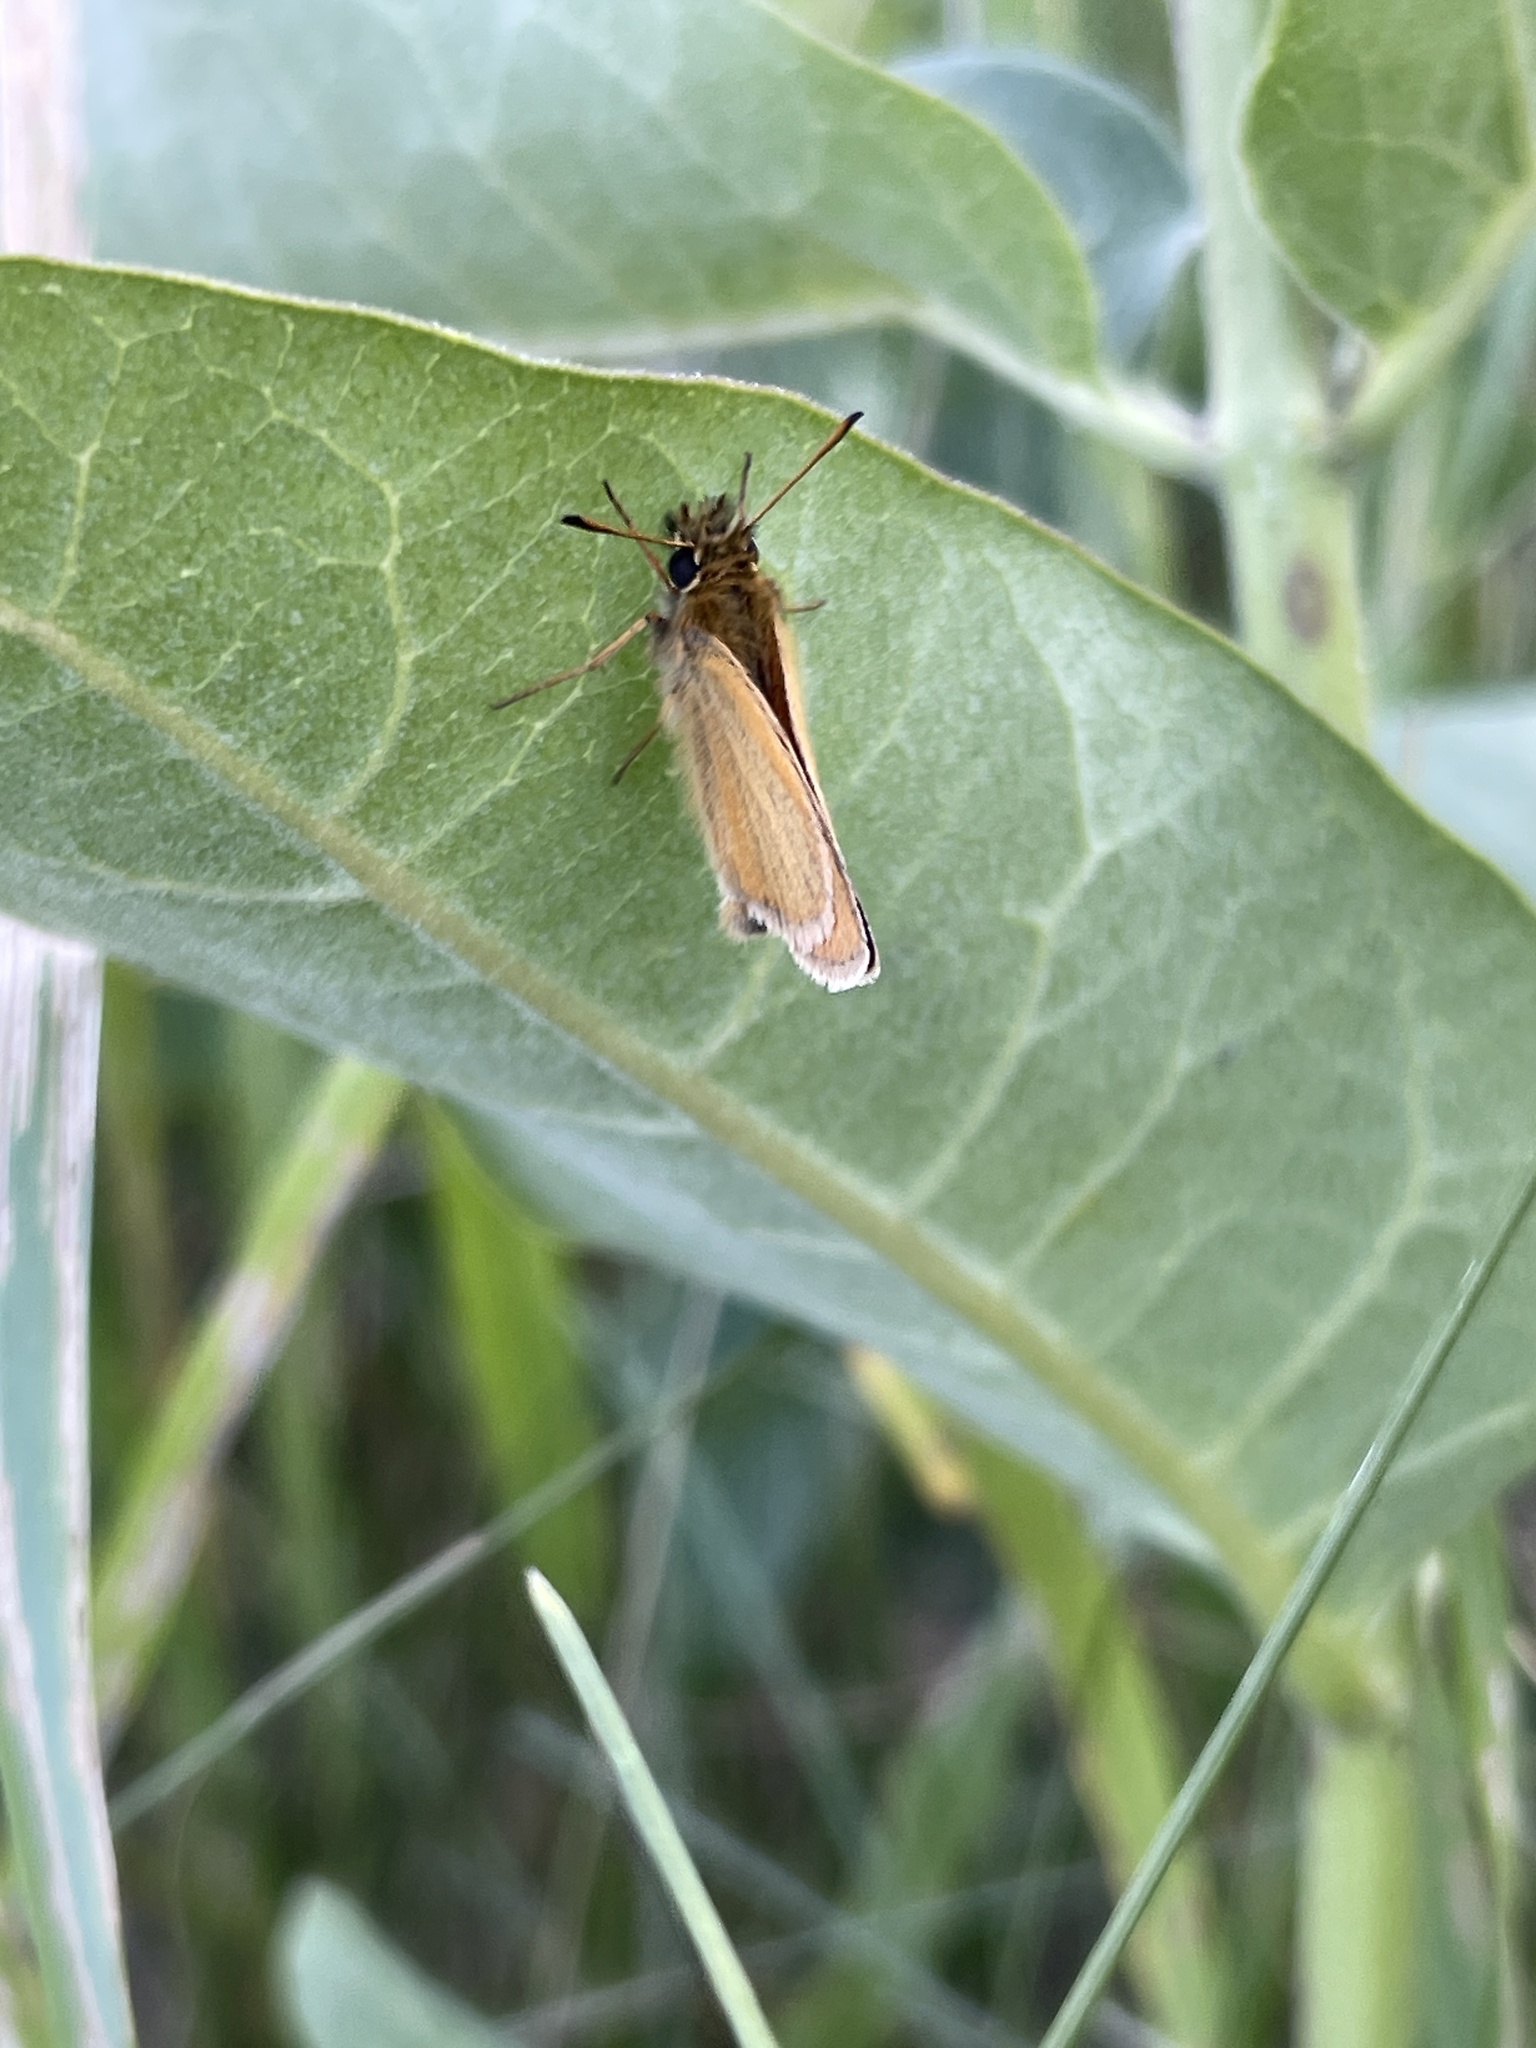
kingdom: Animalia
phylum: Arthropoda
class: Insecta
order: Lepidoptera
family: Hesperiidae
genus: Thymelicus
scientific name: Thymelicus lineola
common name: Essex skipper
